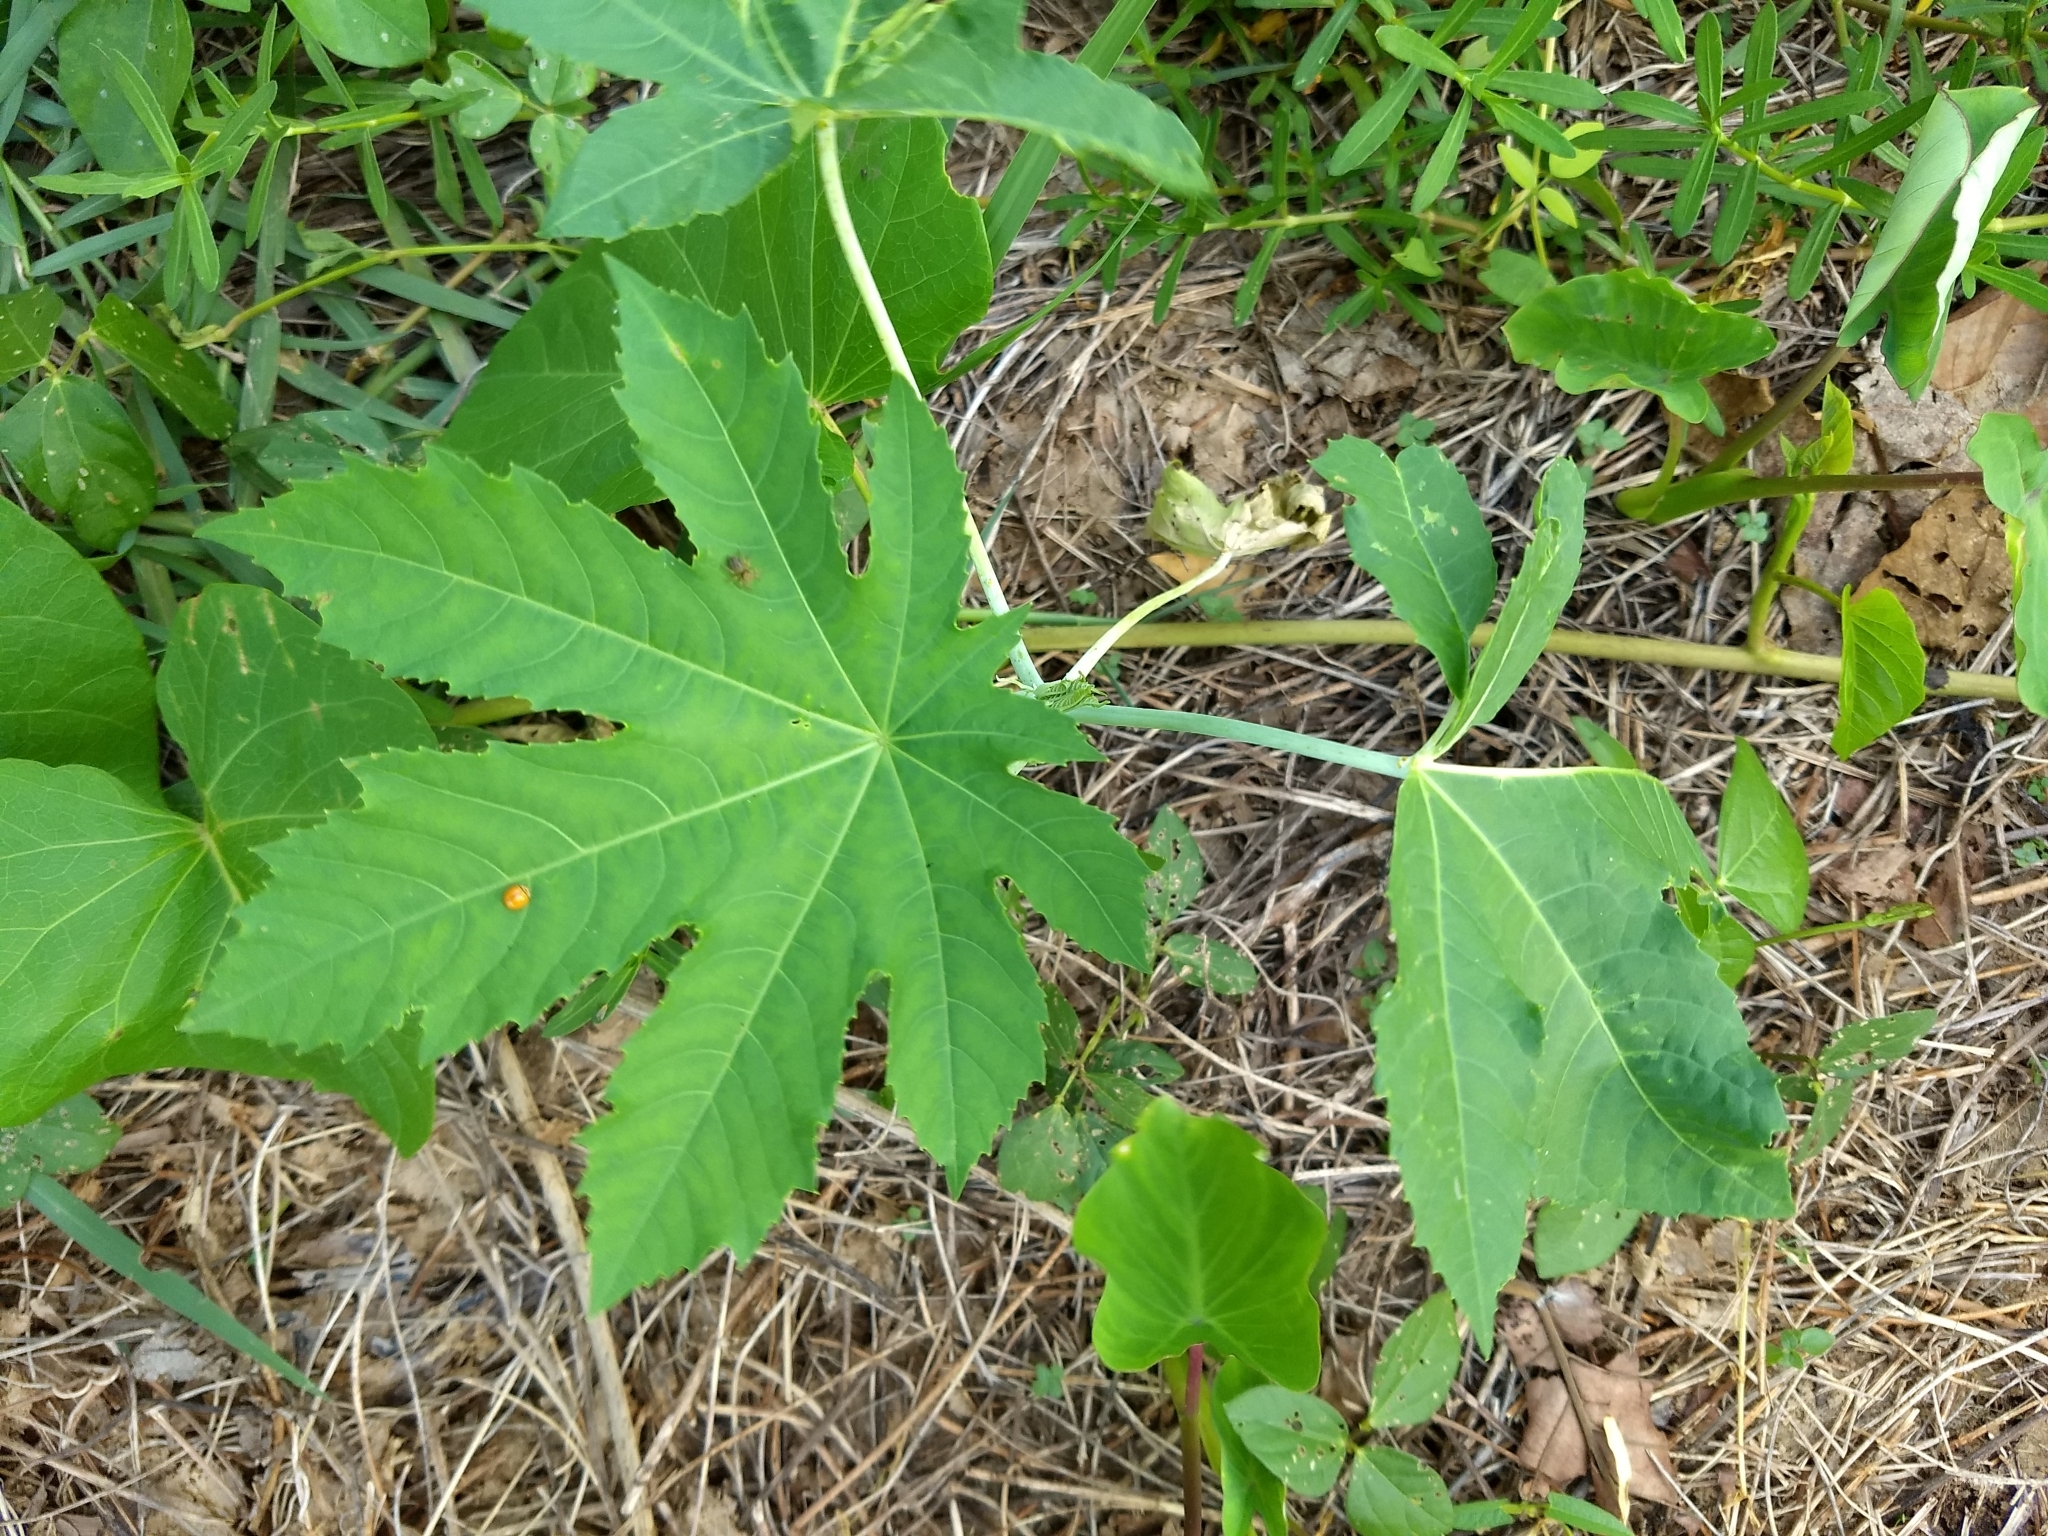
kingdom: Plantae
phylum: Tracheophyta
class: Magnoliopsida
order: Malpighiales
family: Euphorbiaceae
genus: Ricinus
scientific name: Ricinus communis
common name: Castor-oil-plant
